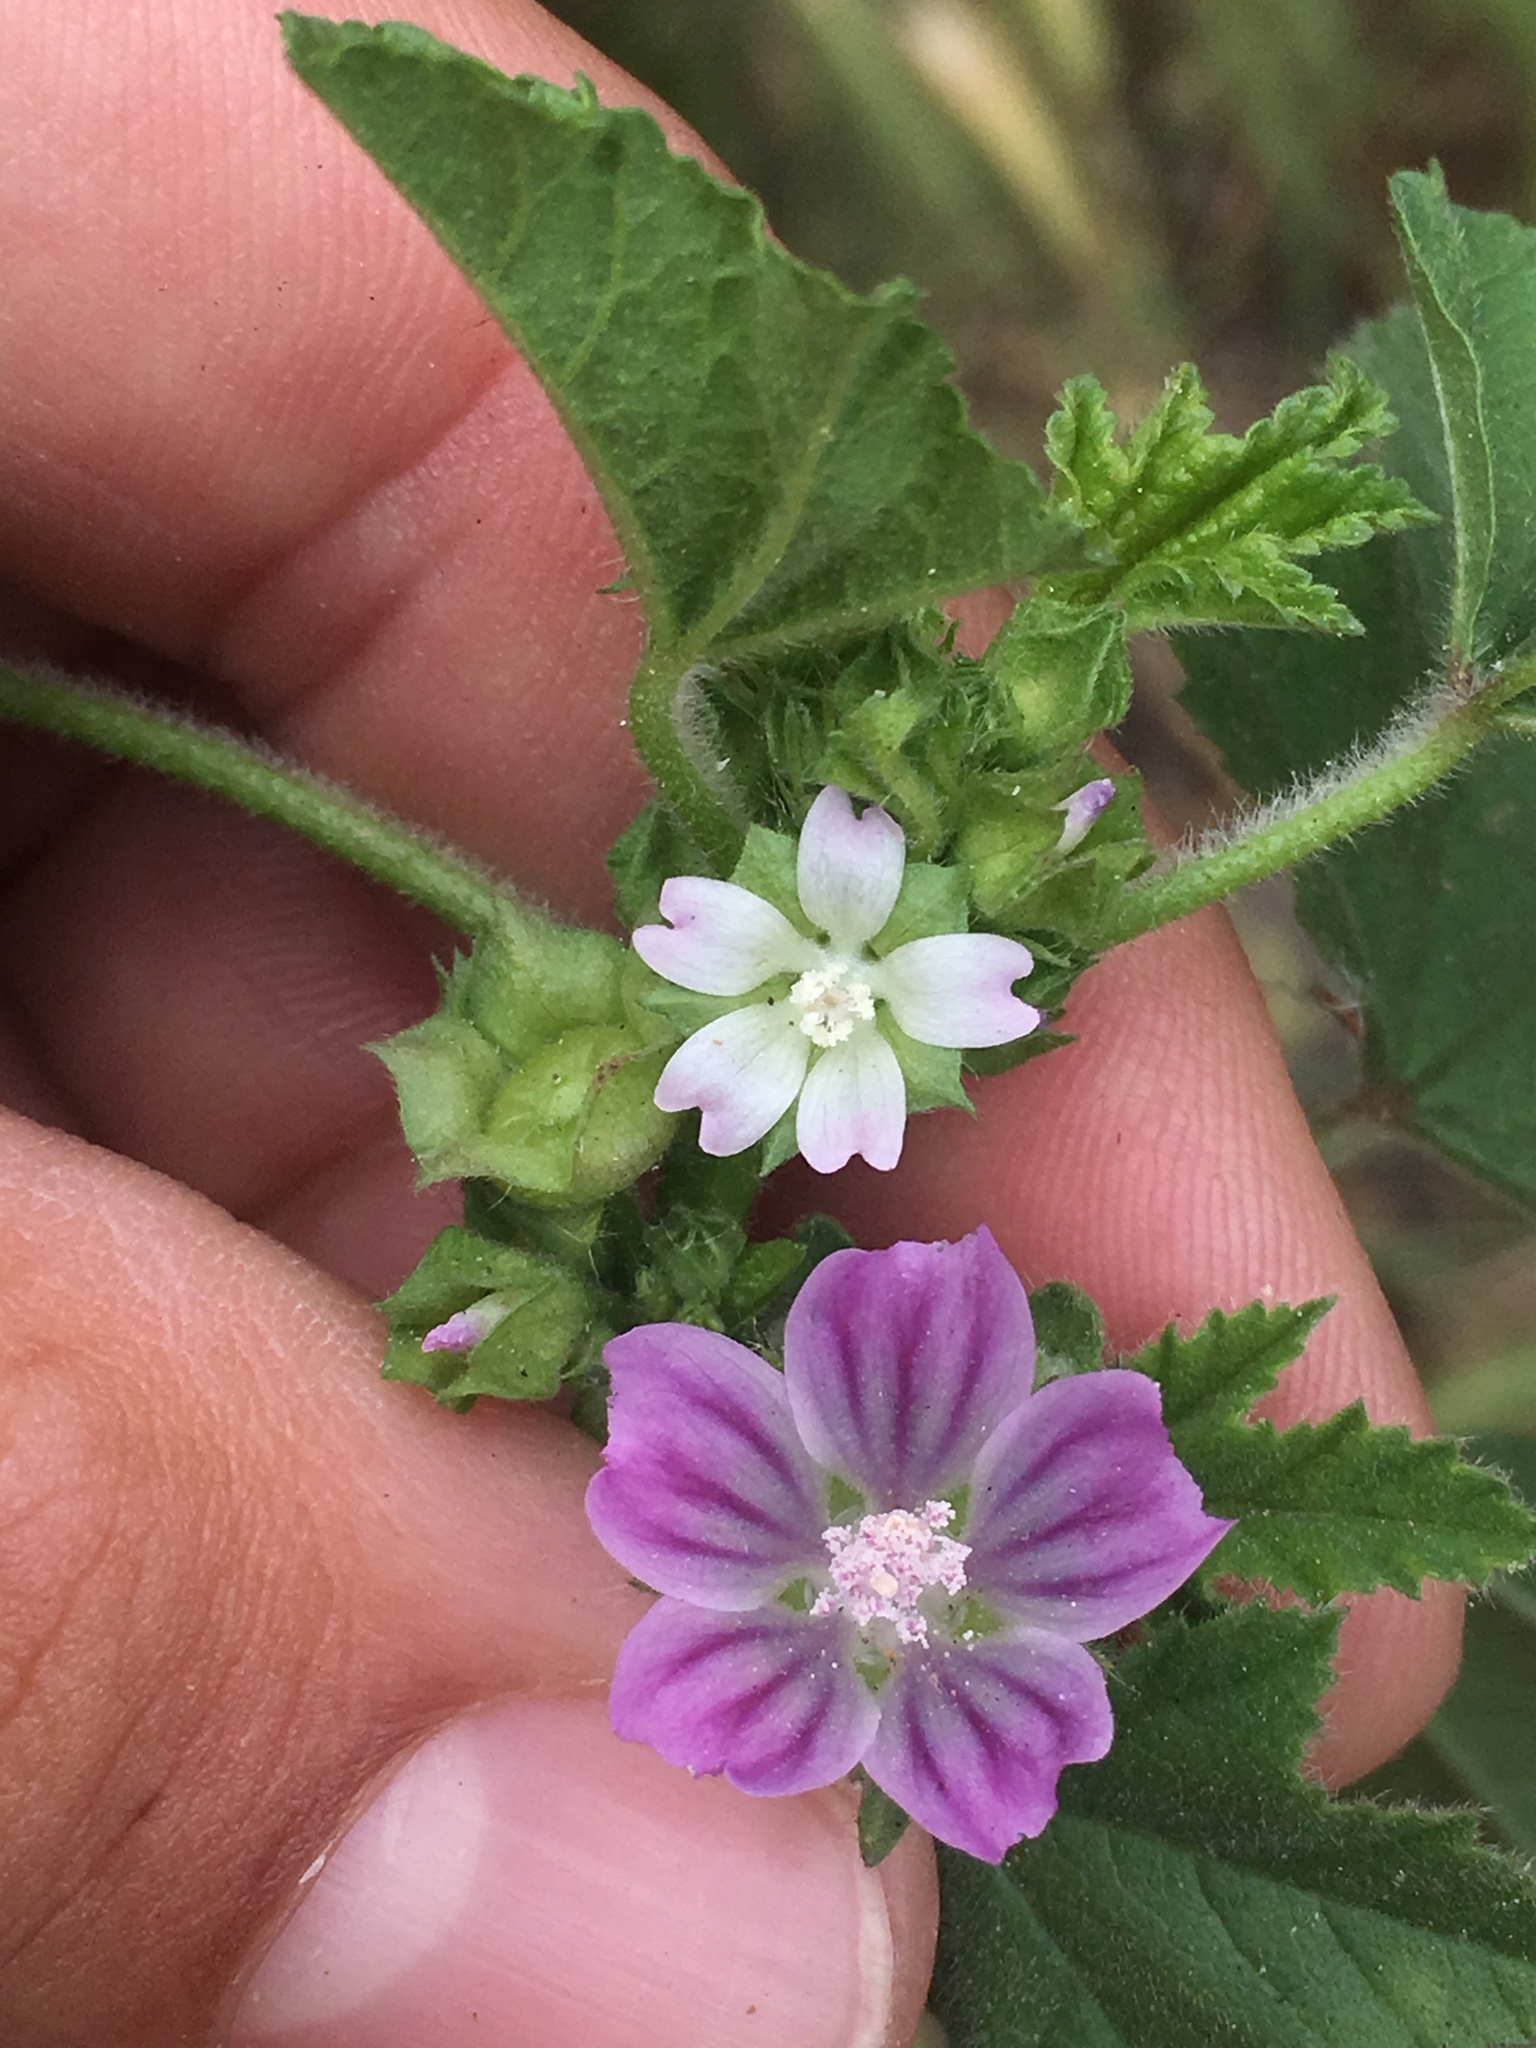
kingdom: Plantae
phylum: Tracheophyta
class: Magnoliopsida
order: Malvales
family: Malvaceae
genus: Malva
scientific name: Malva nicaeensis
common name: French mallow
